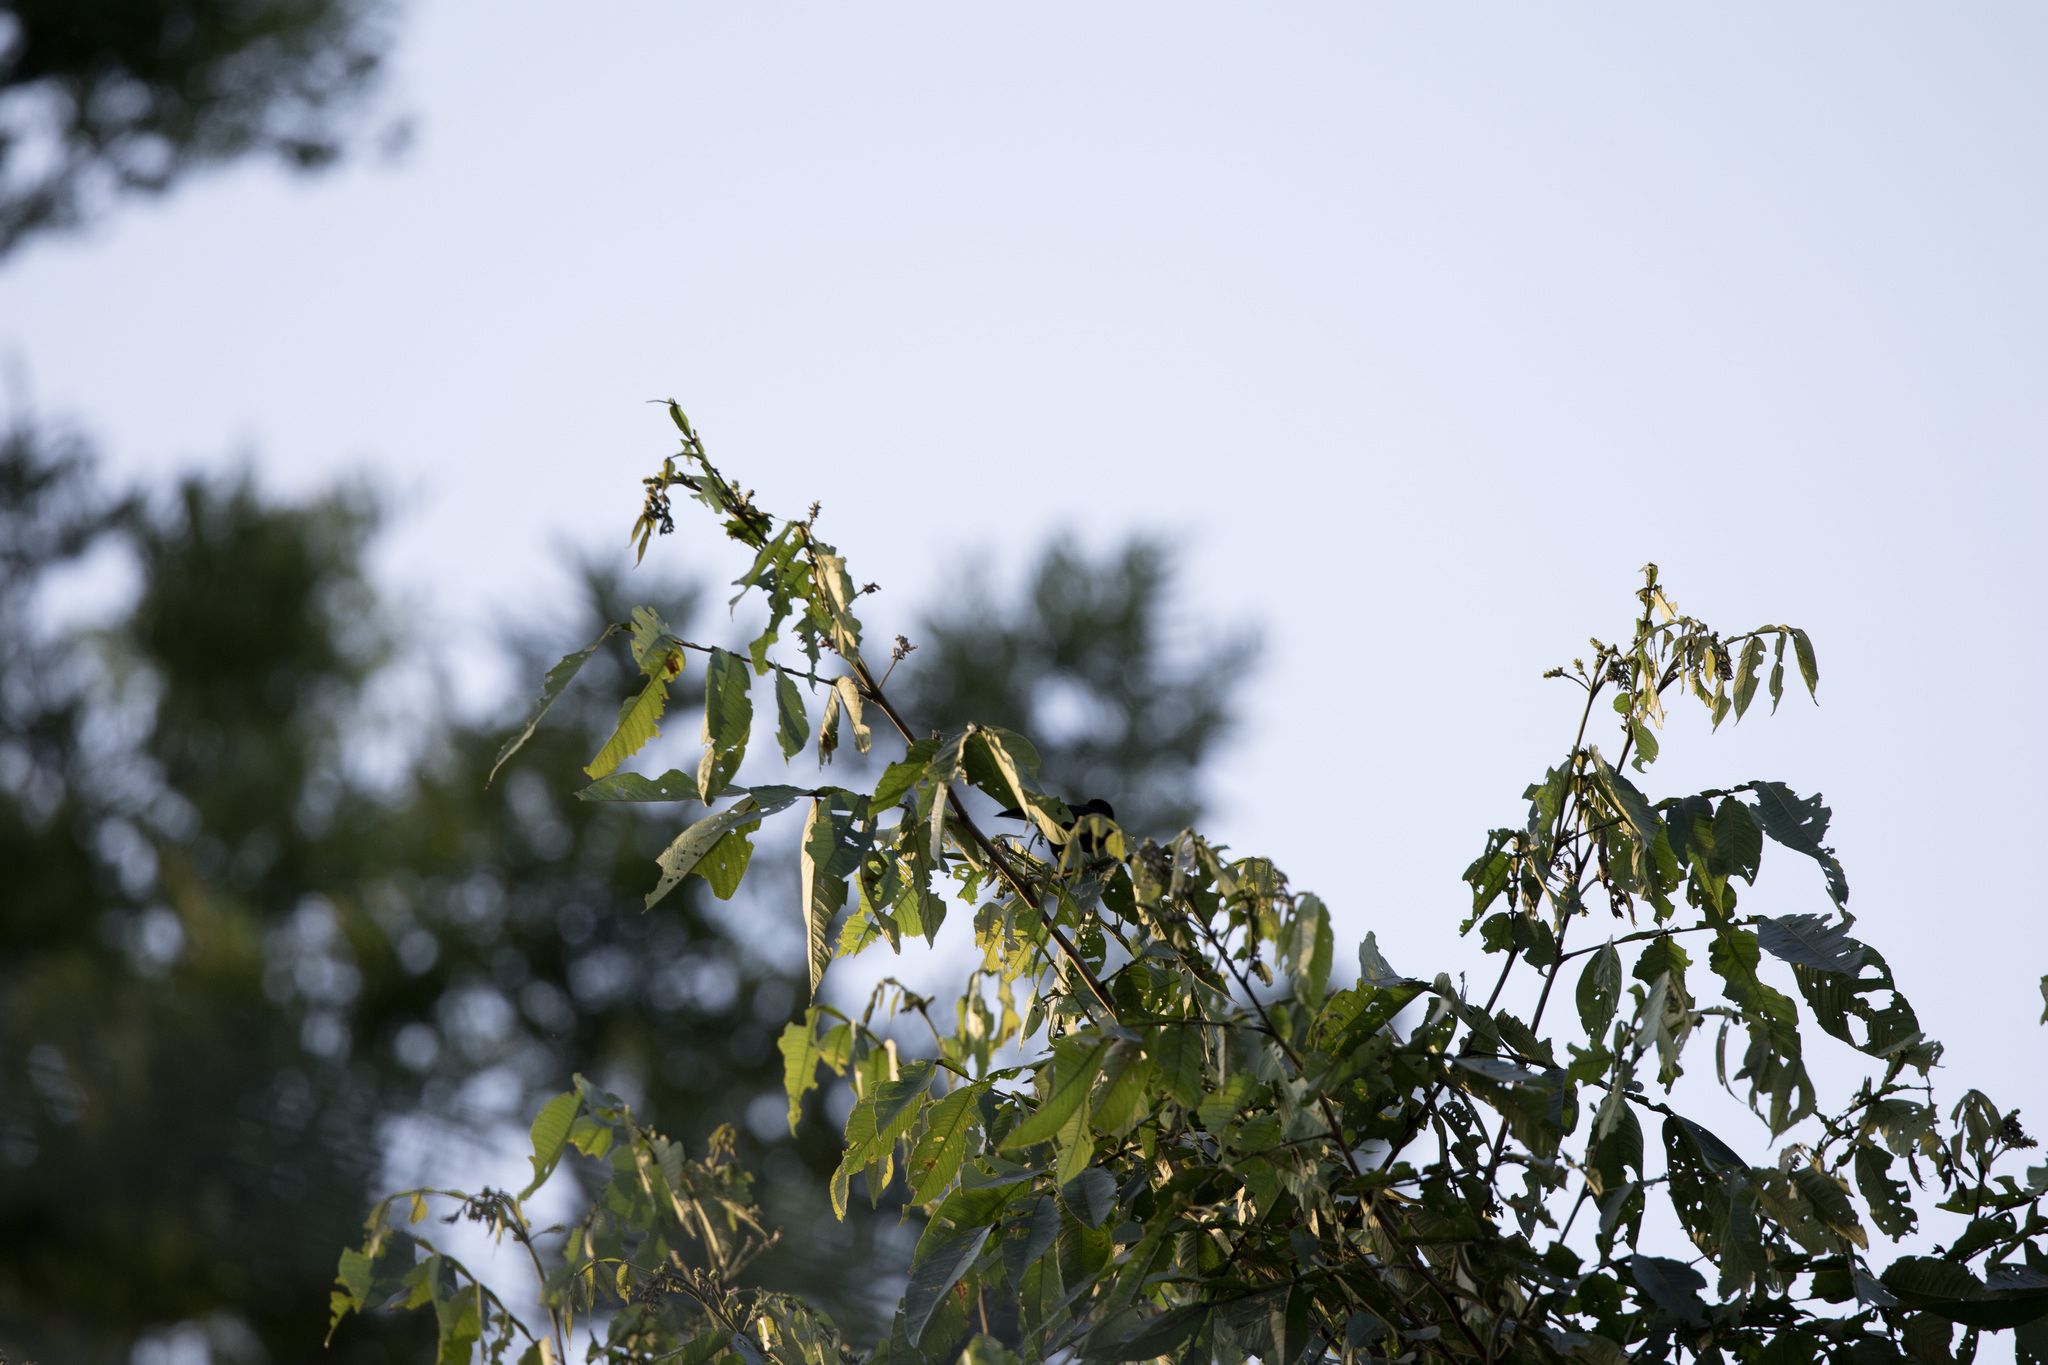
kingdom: Animalia
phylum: Chordata
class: Aves
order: Passeriformes
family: Thraupidae
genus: Ramphocelus
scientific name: Ramphocelus carbo
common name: Silver-beaked tanager
